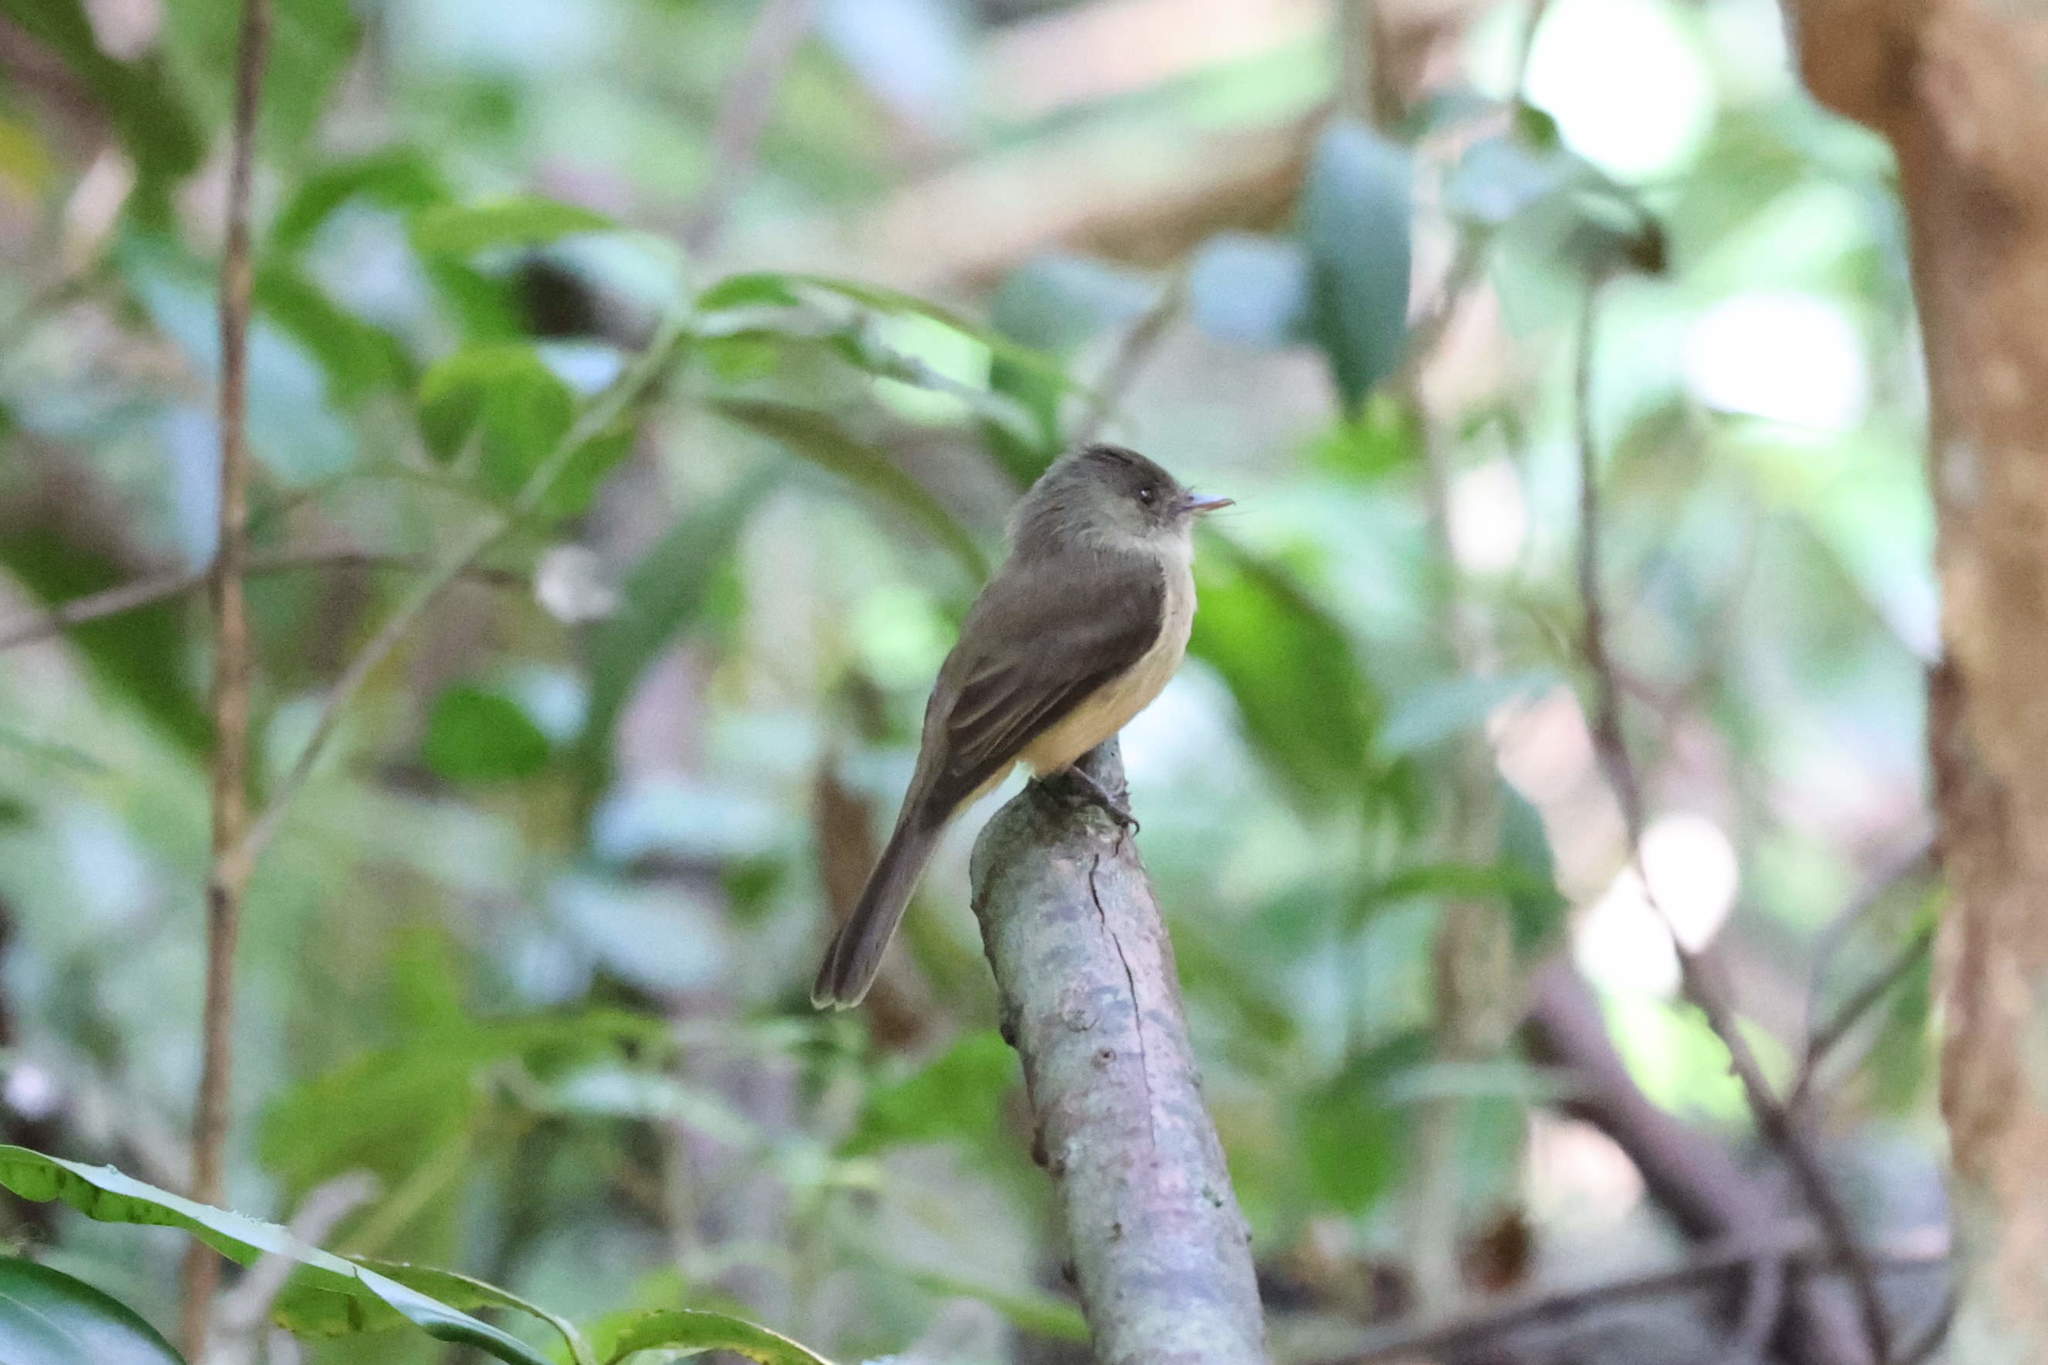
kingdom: Animalia
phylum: Chordata
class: Aves
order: Passeriformes
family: Tyrannidae
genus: Contopus
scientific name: Contopus latirostris
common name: Lesser antillean pewee
